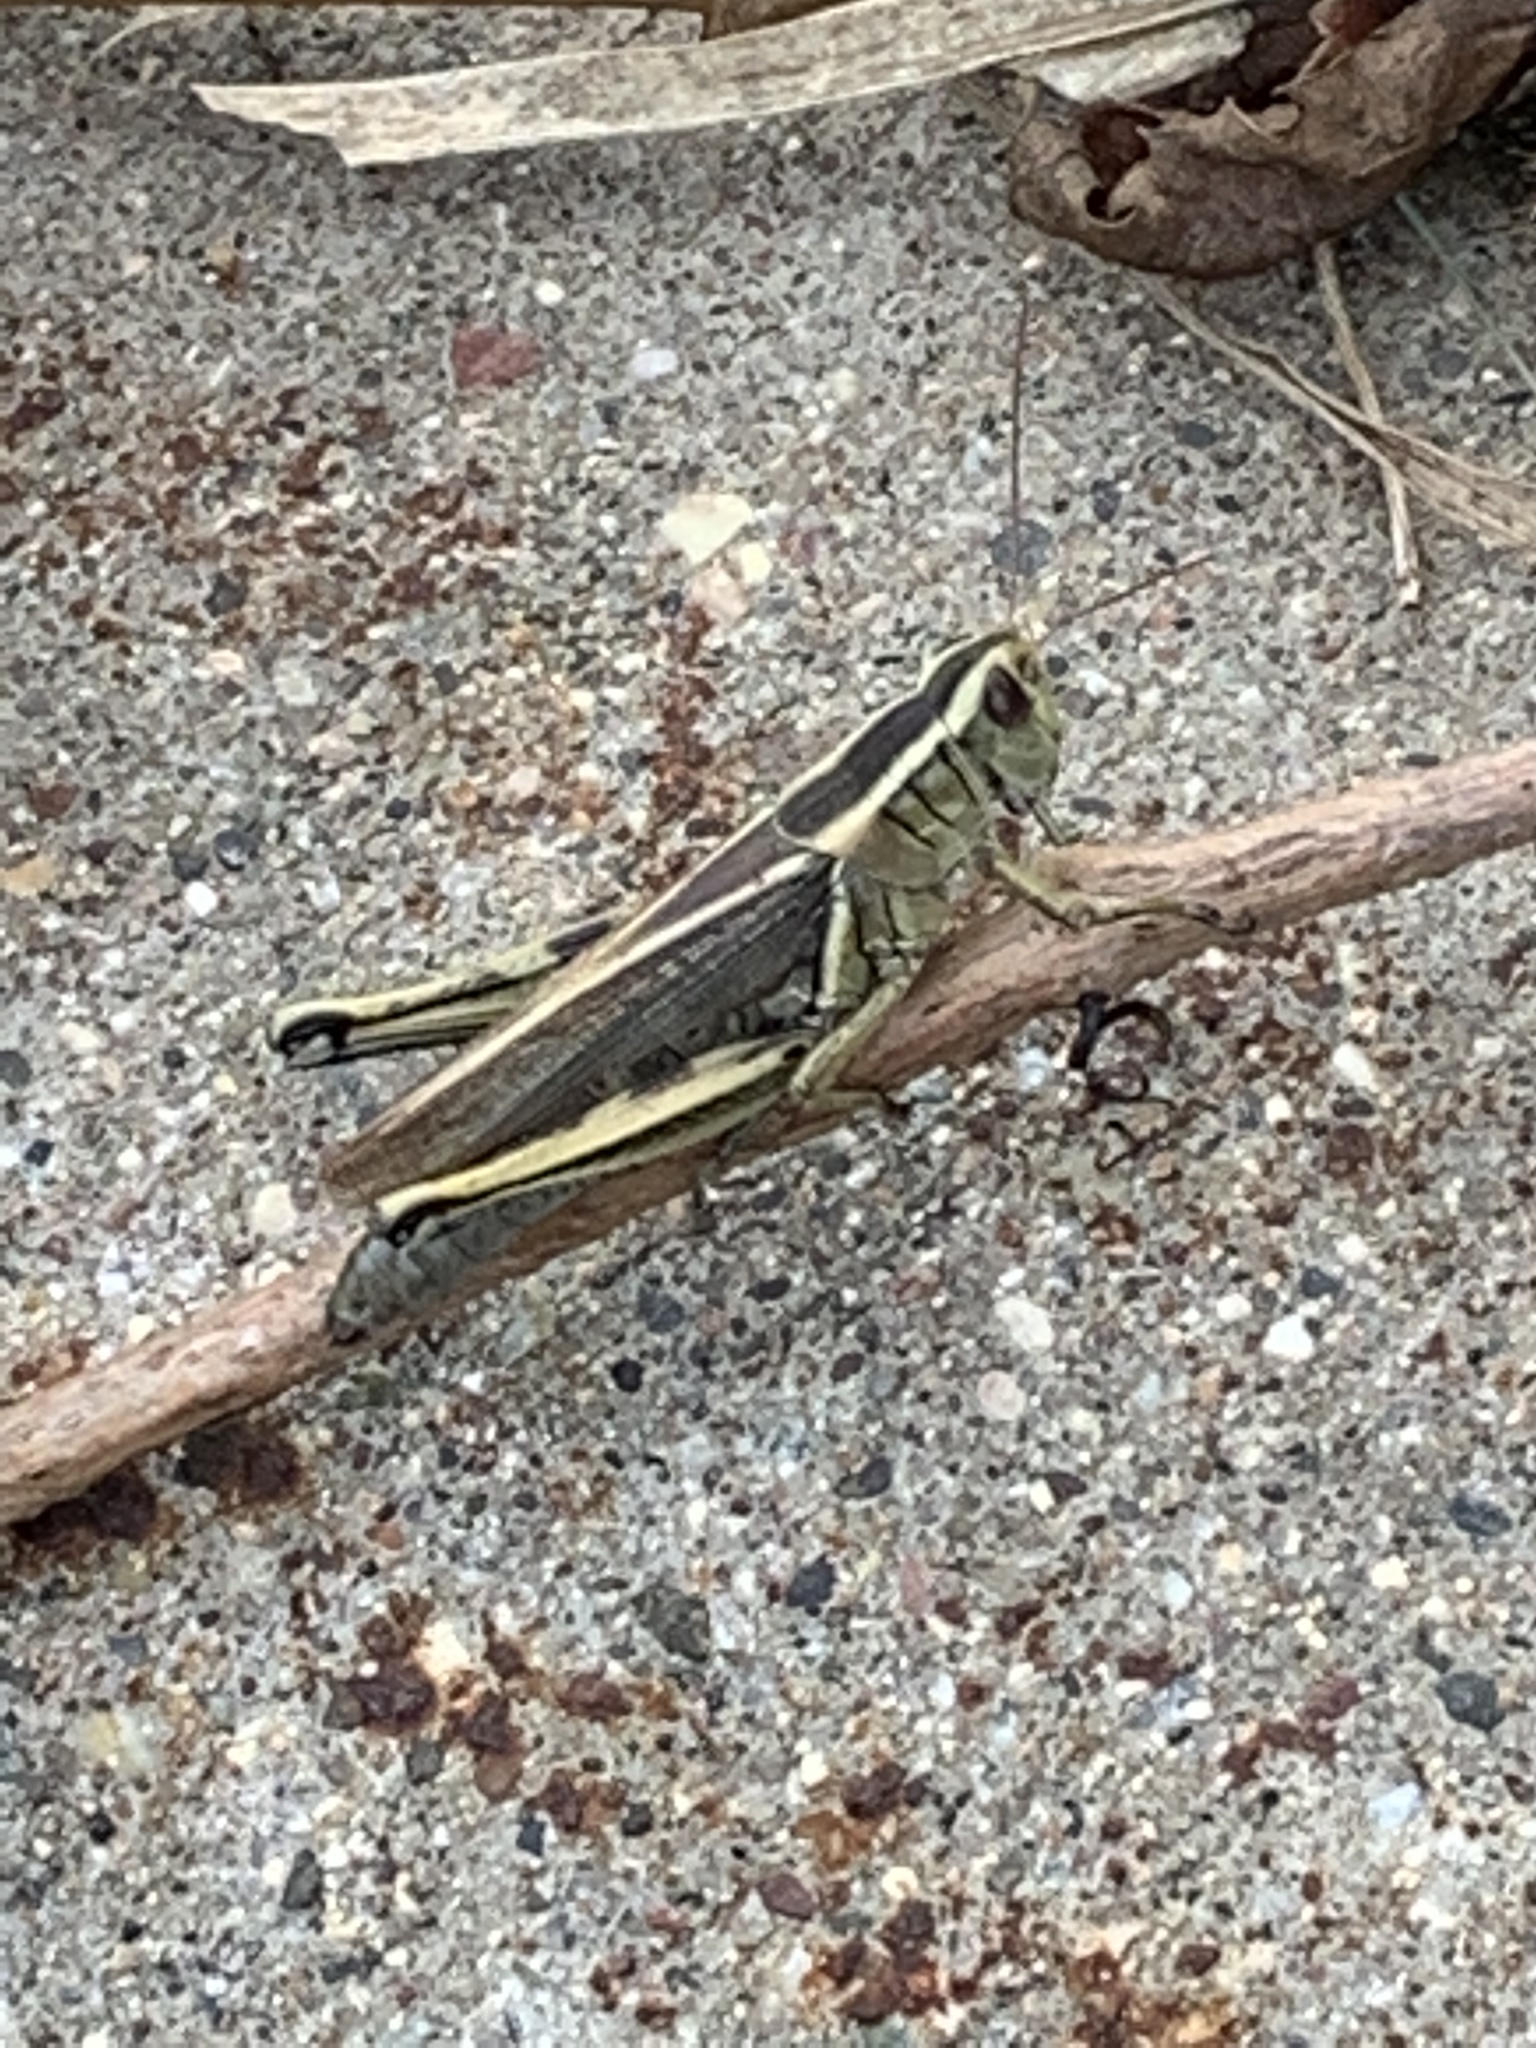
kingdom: Animalia
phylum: Arthropoda
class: Insecta
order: Orthoptera
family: Acrididae
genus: Melanoplus
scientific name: Melanoplus bivittatus
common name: Two-striped grasshopper
